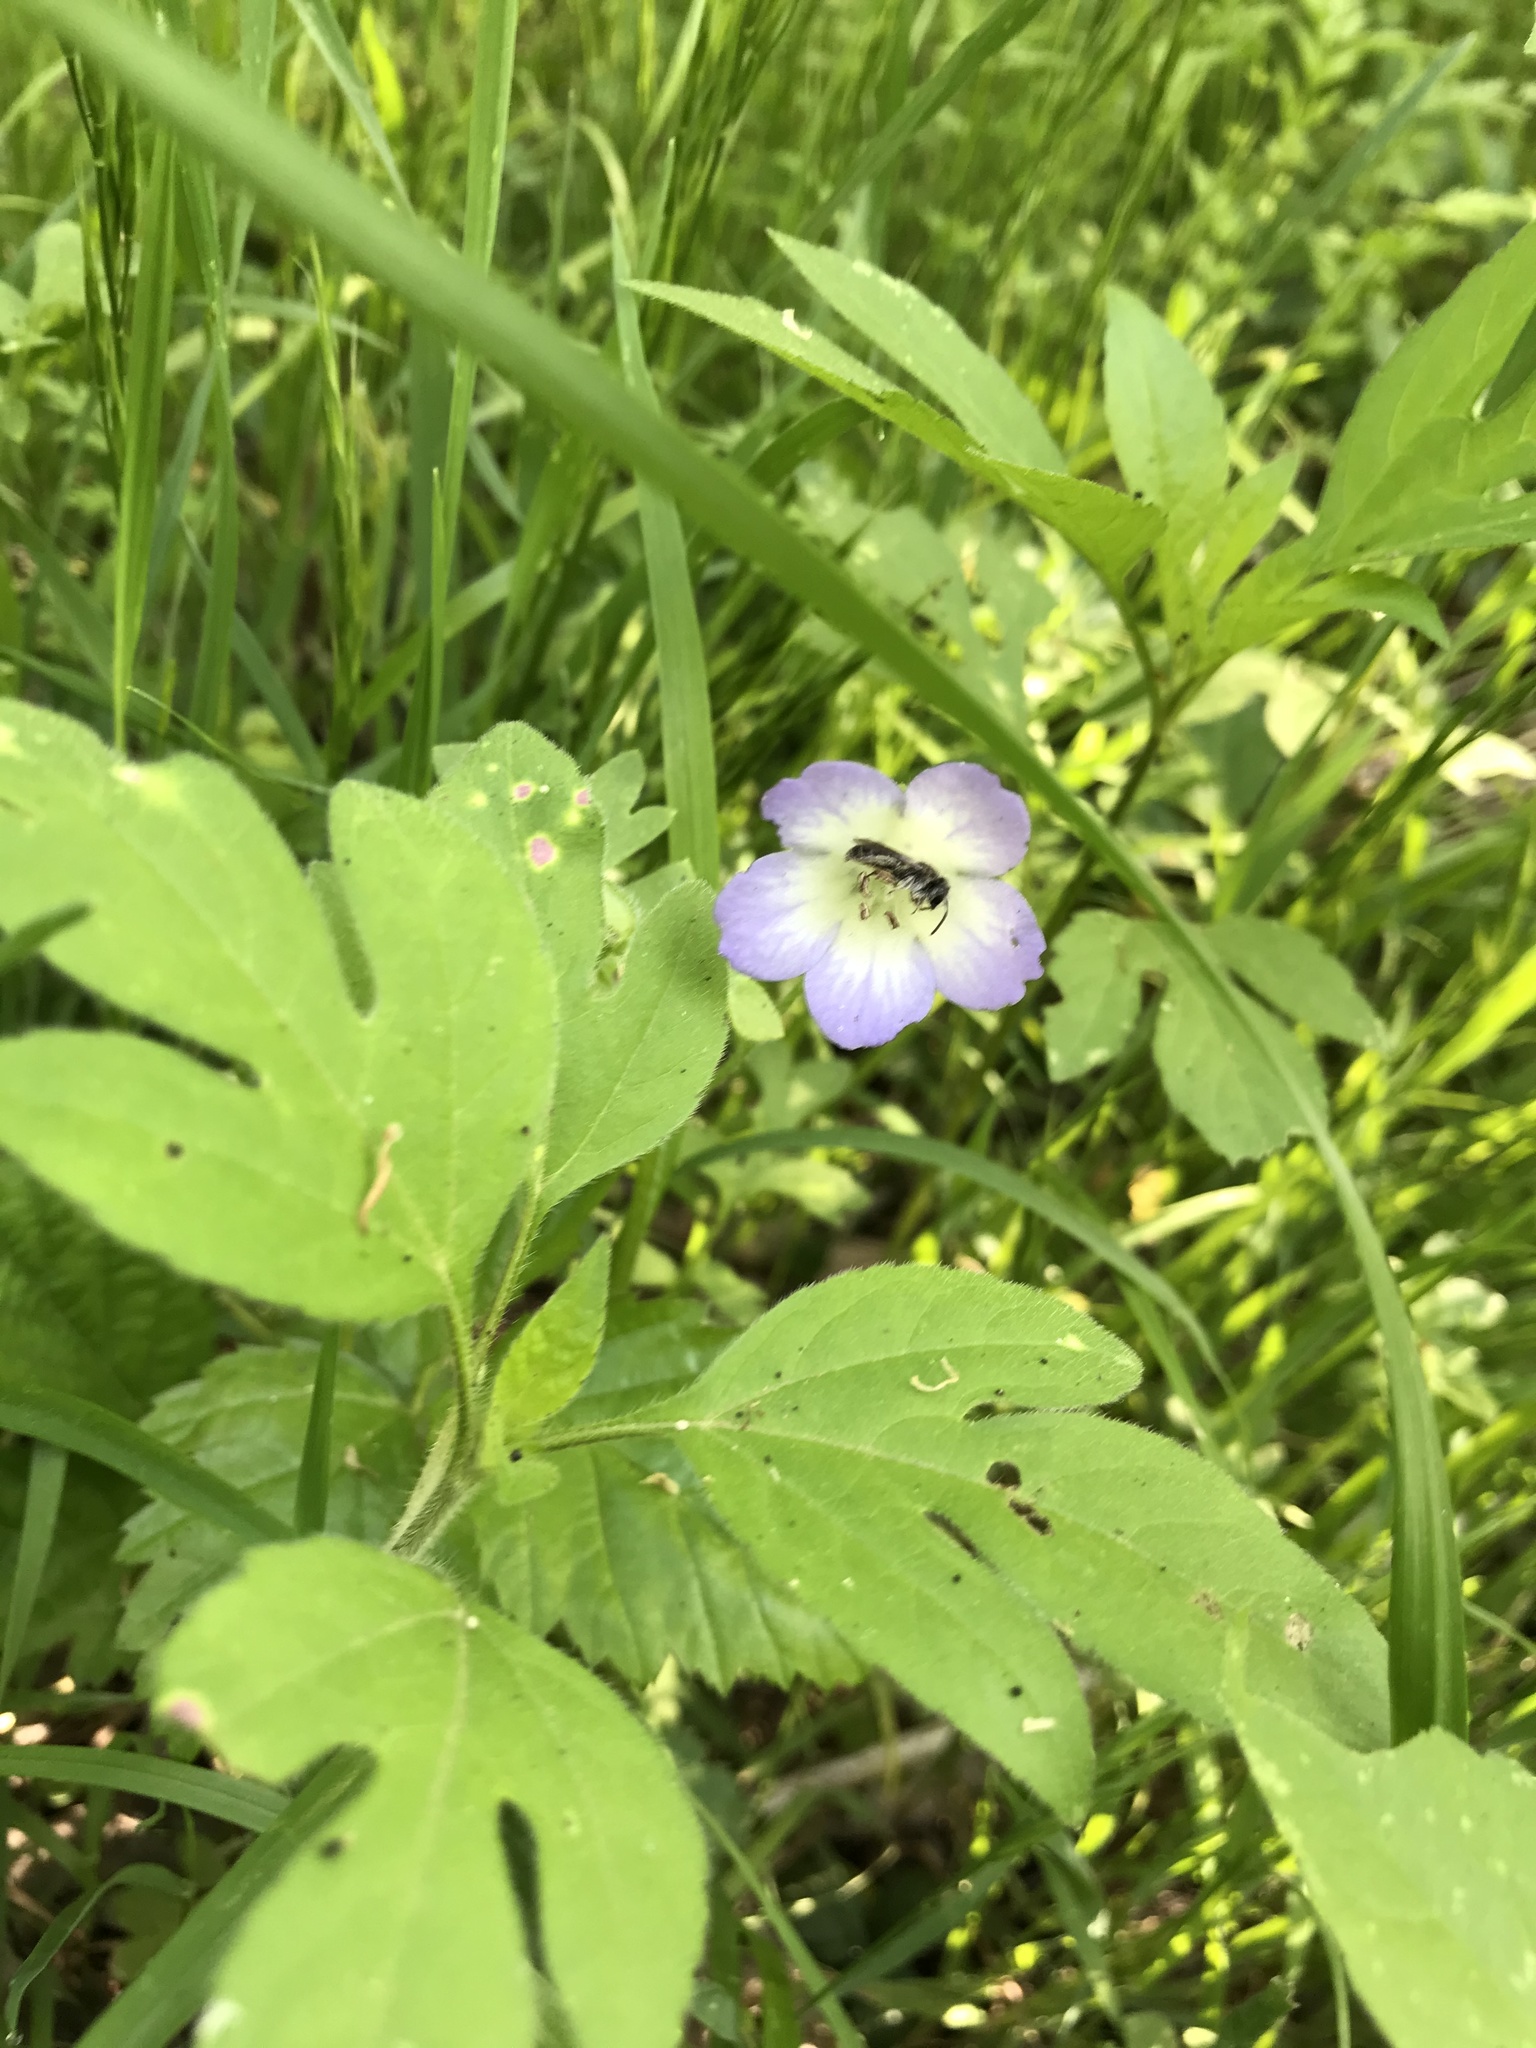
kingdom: Plantae
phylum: Tracheophyta
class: Magnoliopsida
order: Boraginales
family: Hydrophyllaceae
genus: Nemophila
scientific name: Nemophila phacelioides
